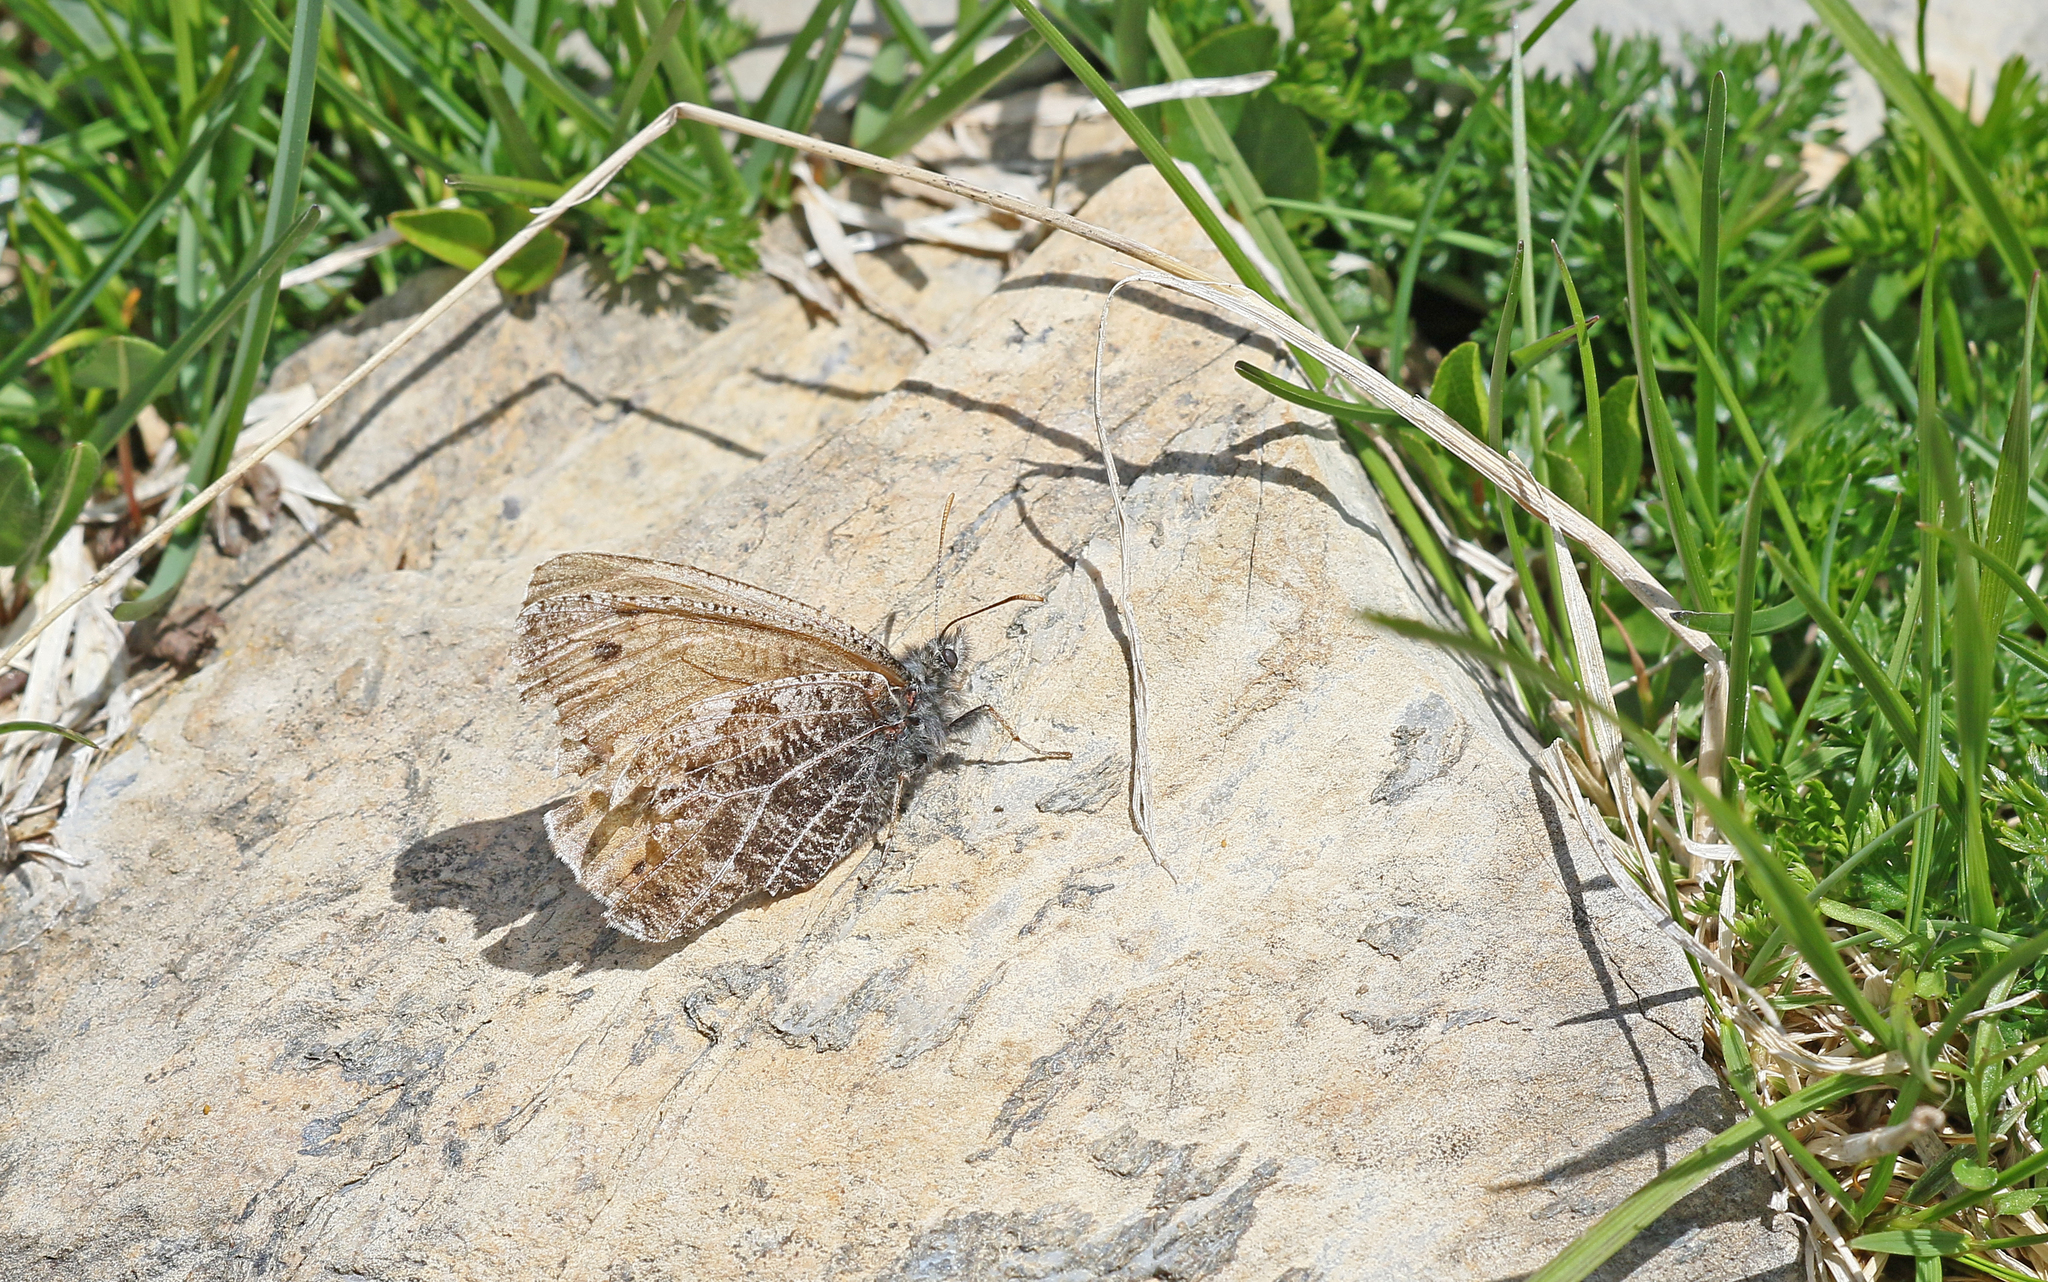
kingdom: Animalia
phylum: Arthropoda
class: Insecta
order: Lepidoptera
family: Nymphalidae
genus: Oeneis
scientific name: Oeneis aello
